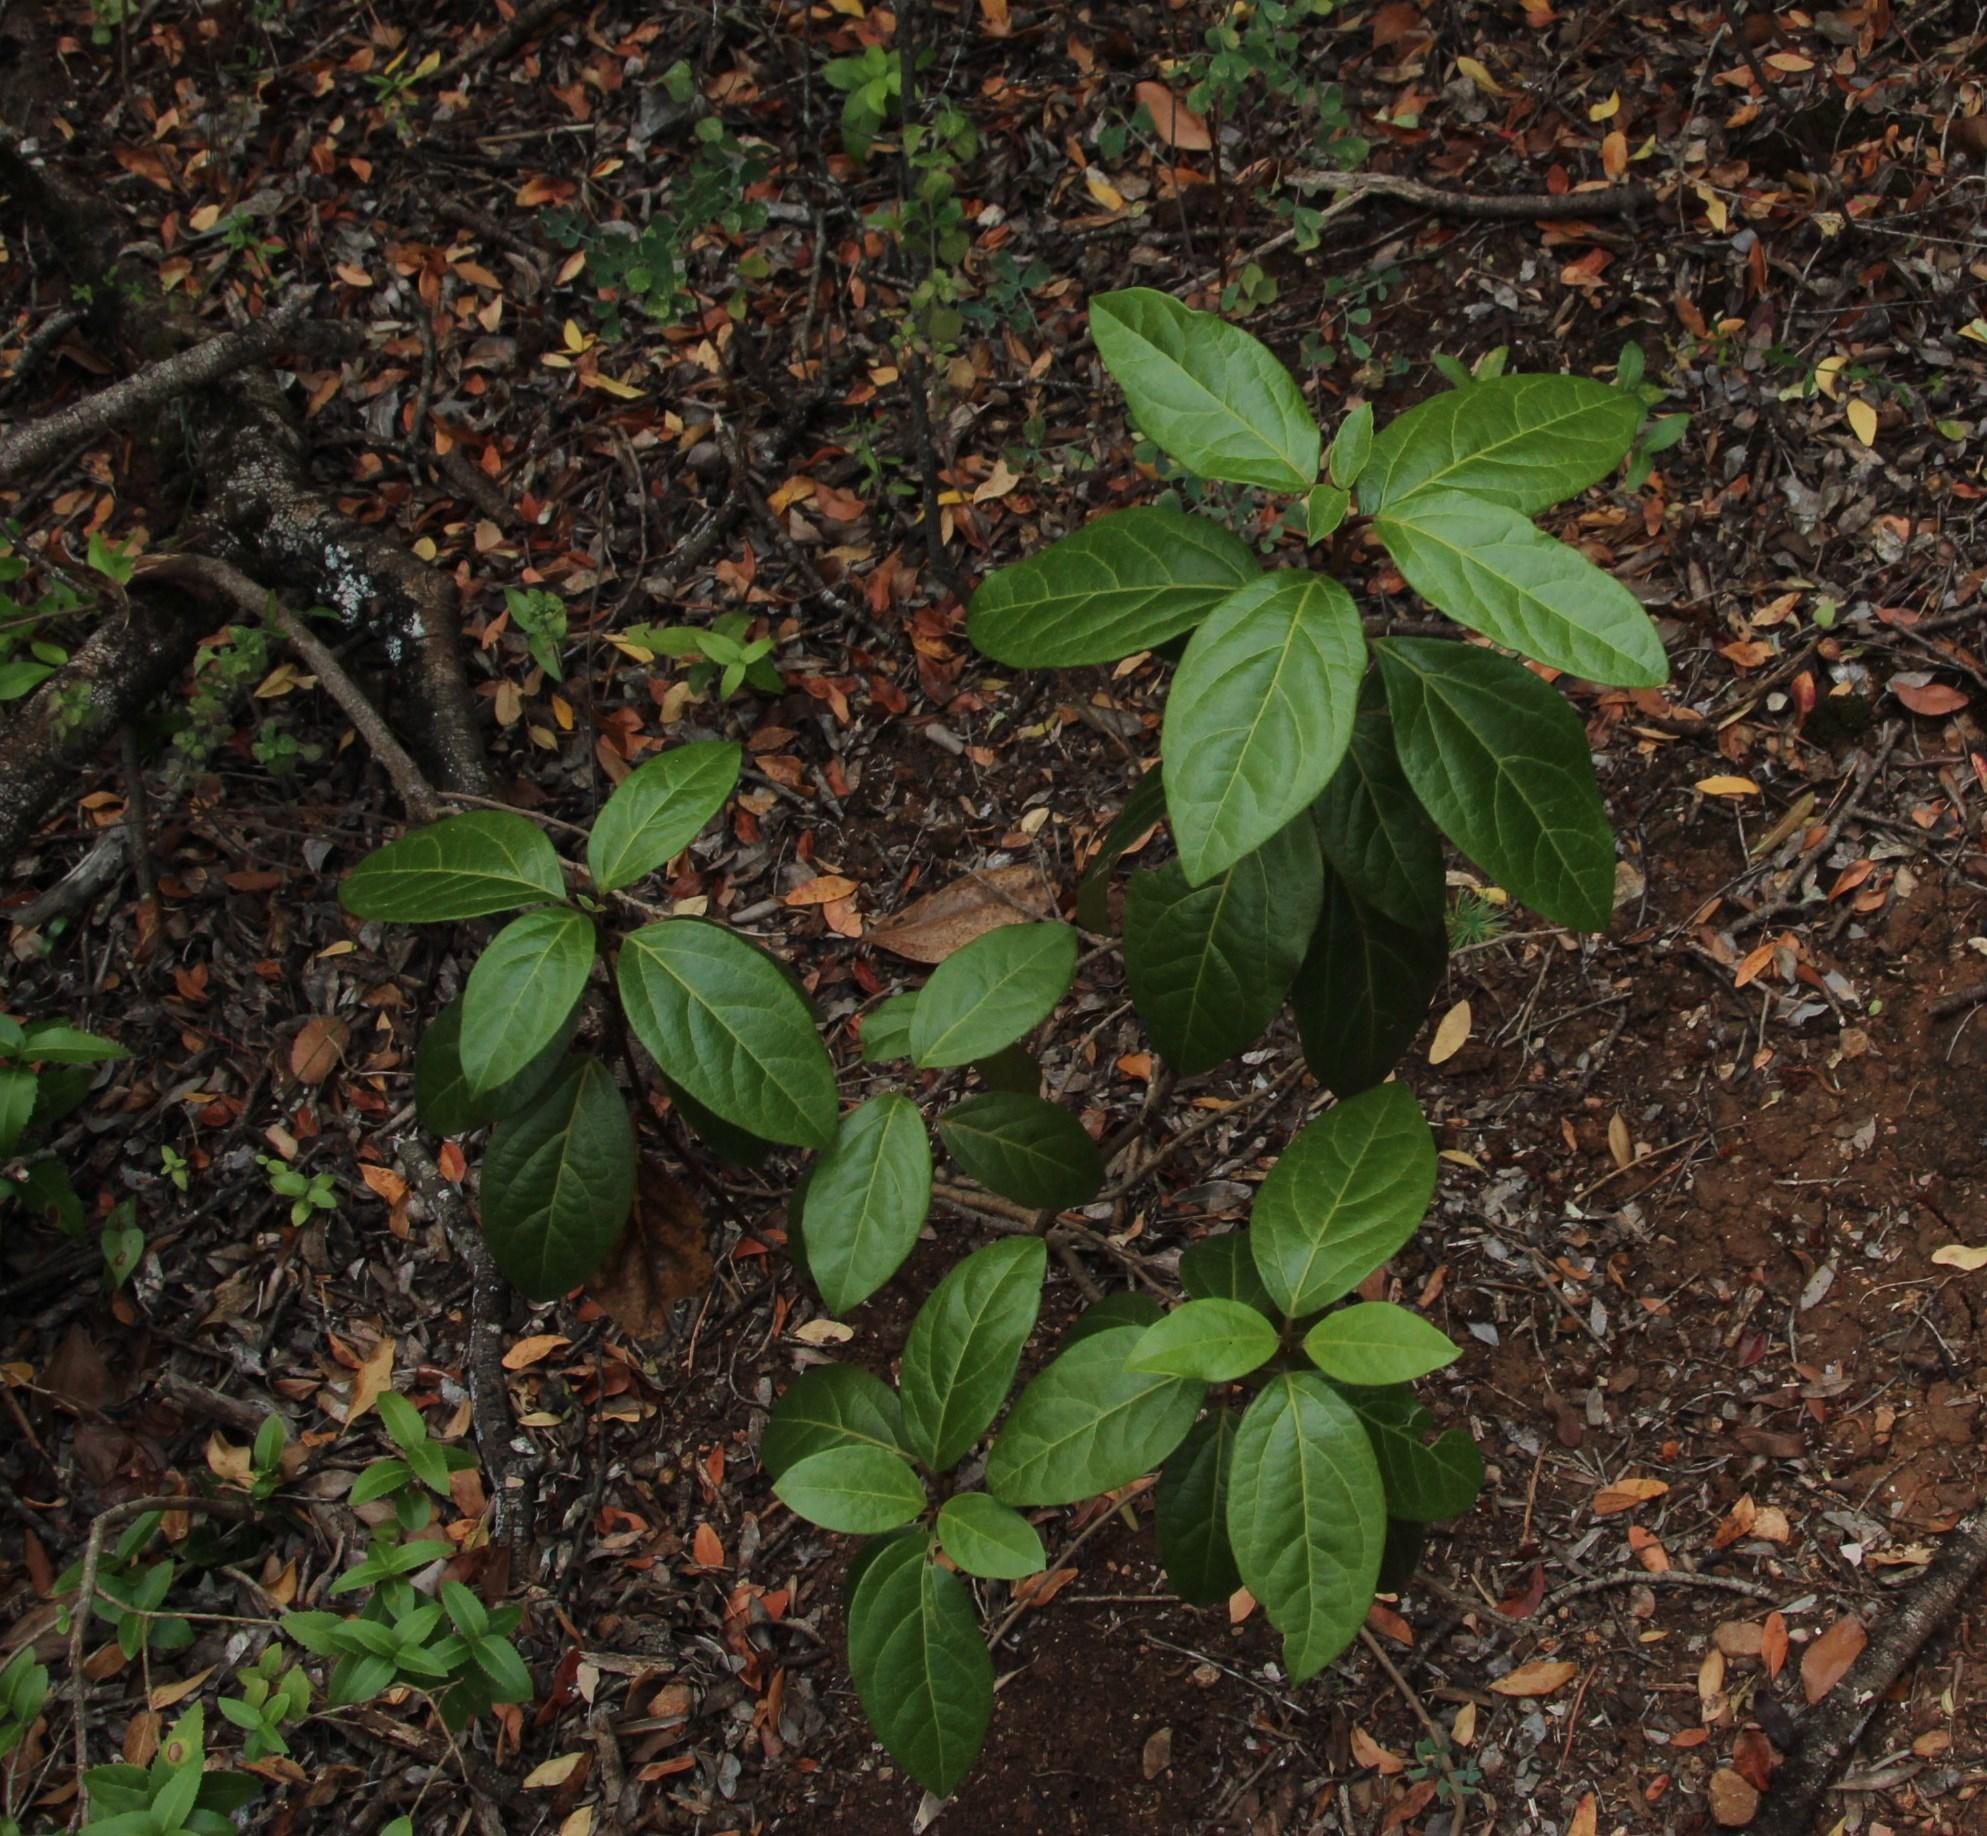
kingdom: Plantae
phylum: Tracheophyta
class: Magnoliopsida
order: Dipsacales
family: Viburnaceae
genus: Viburnum
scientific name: Viburnum tinus
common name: Laurustinus
